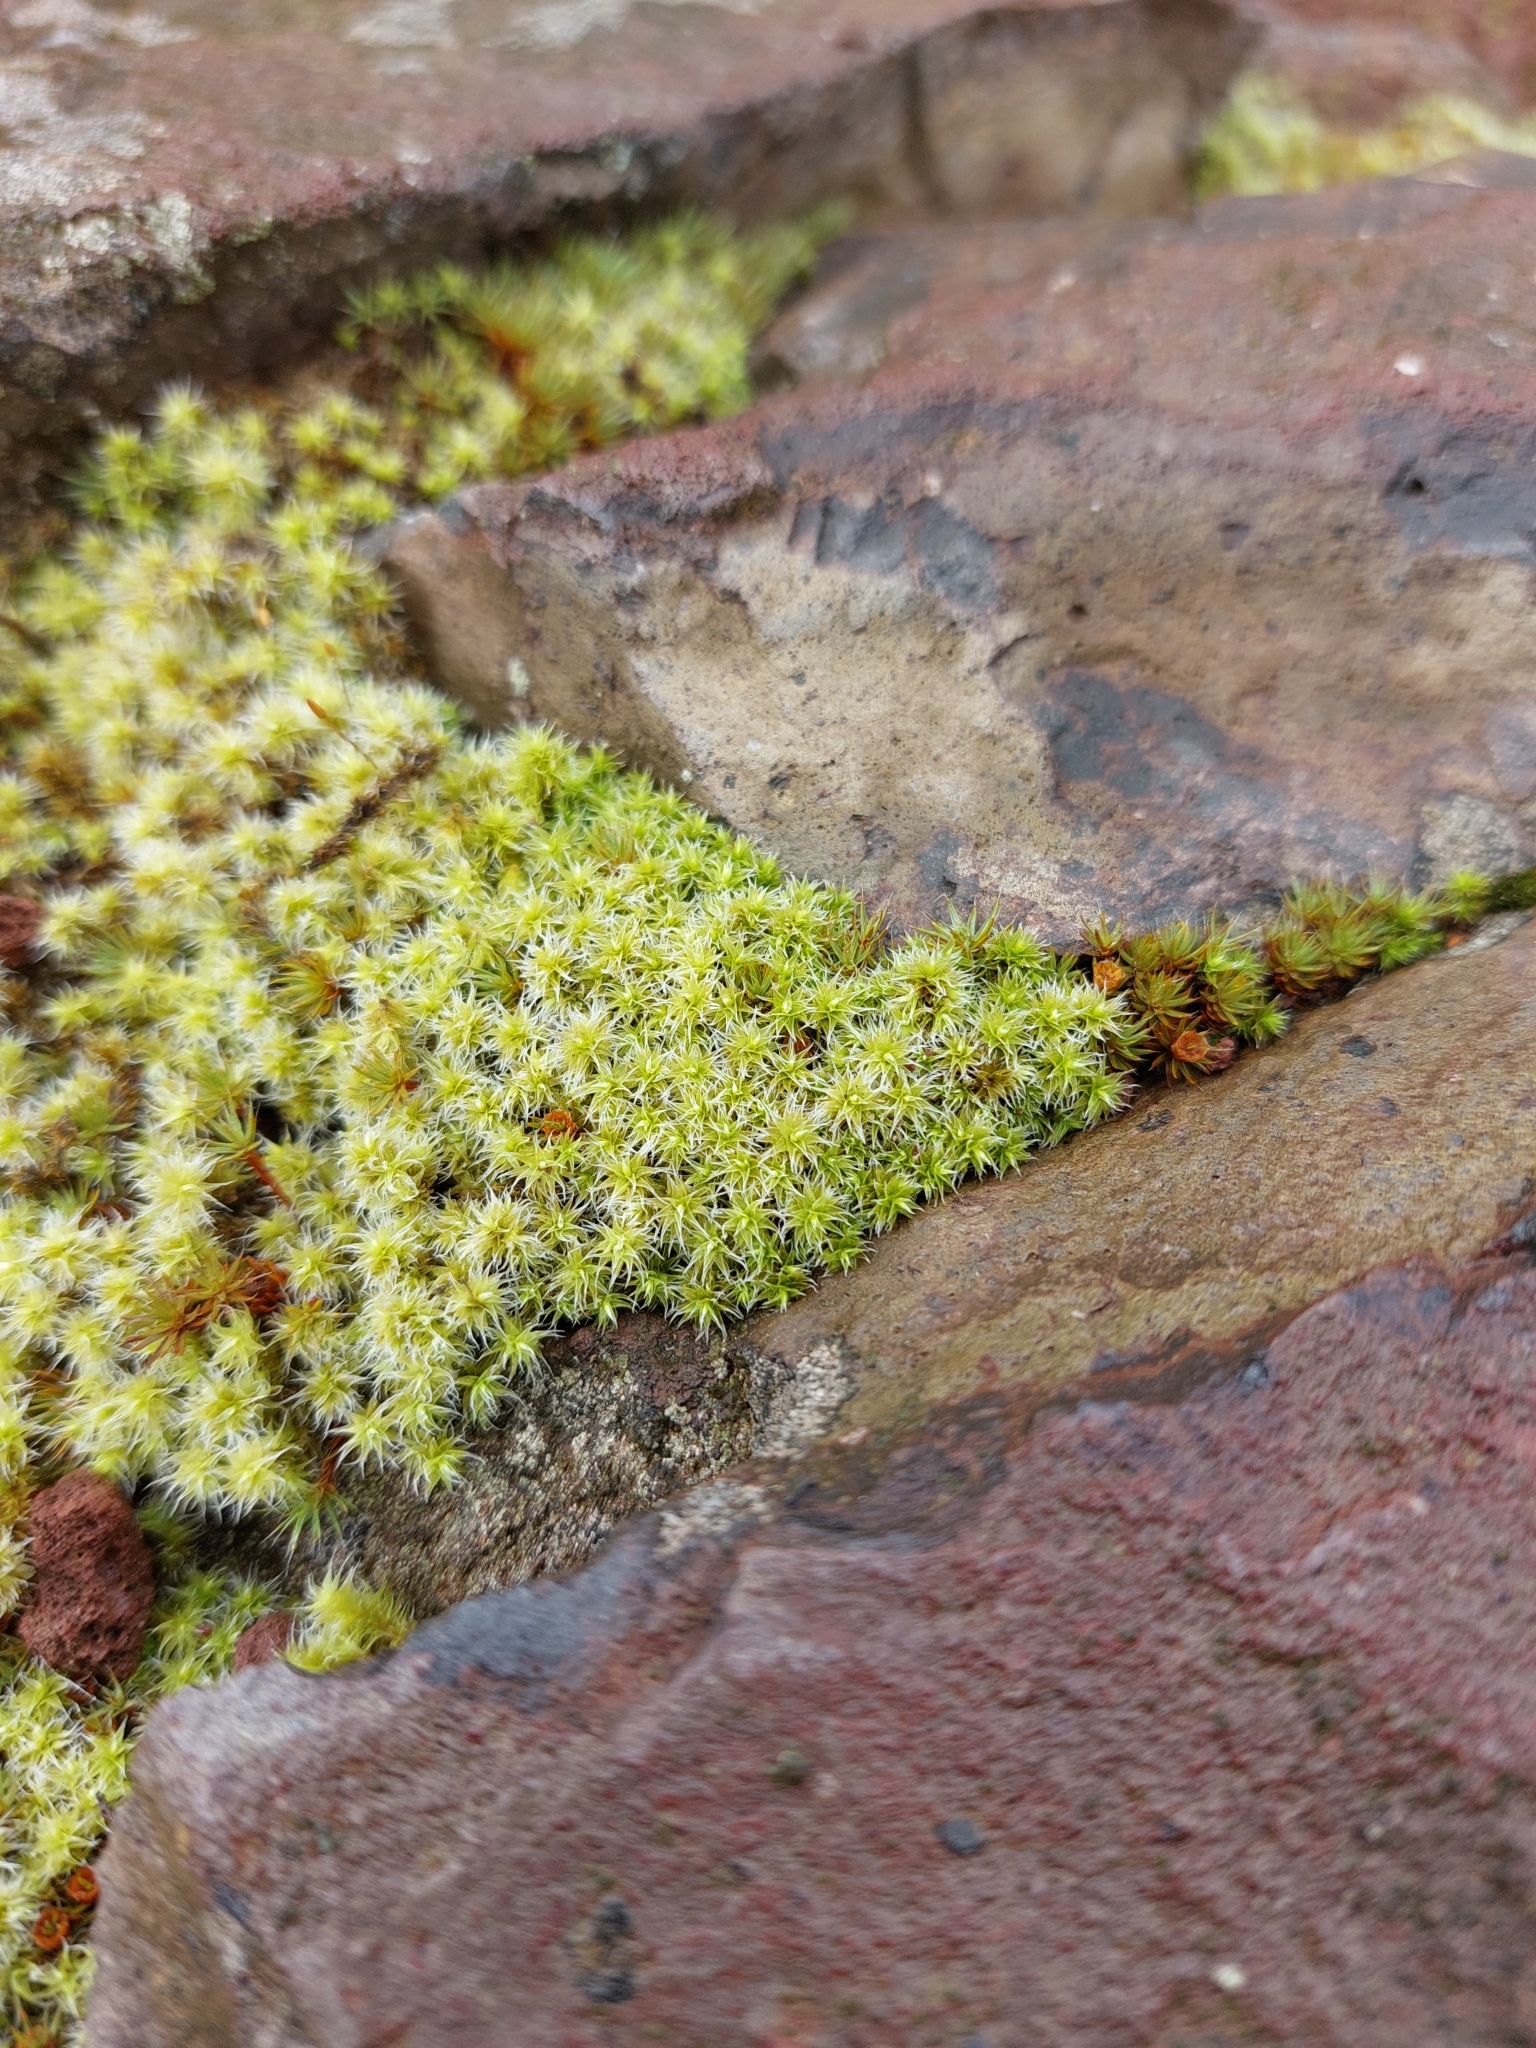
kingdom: Plantae
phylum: Bryophyta
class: Bryopsida
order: Grimmiales
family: Grimmiaceae
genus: Niphotrichum
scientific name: Niphotrichum canescens
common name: Hoary fringe-moss
